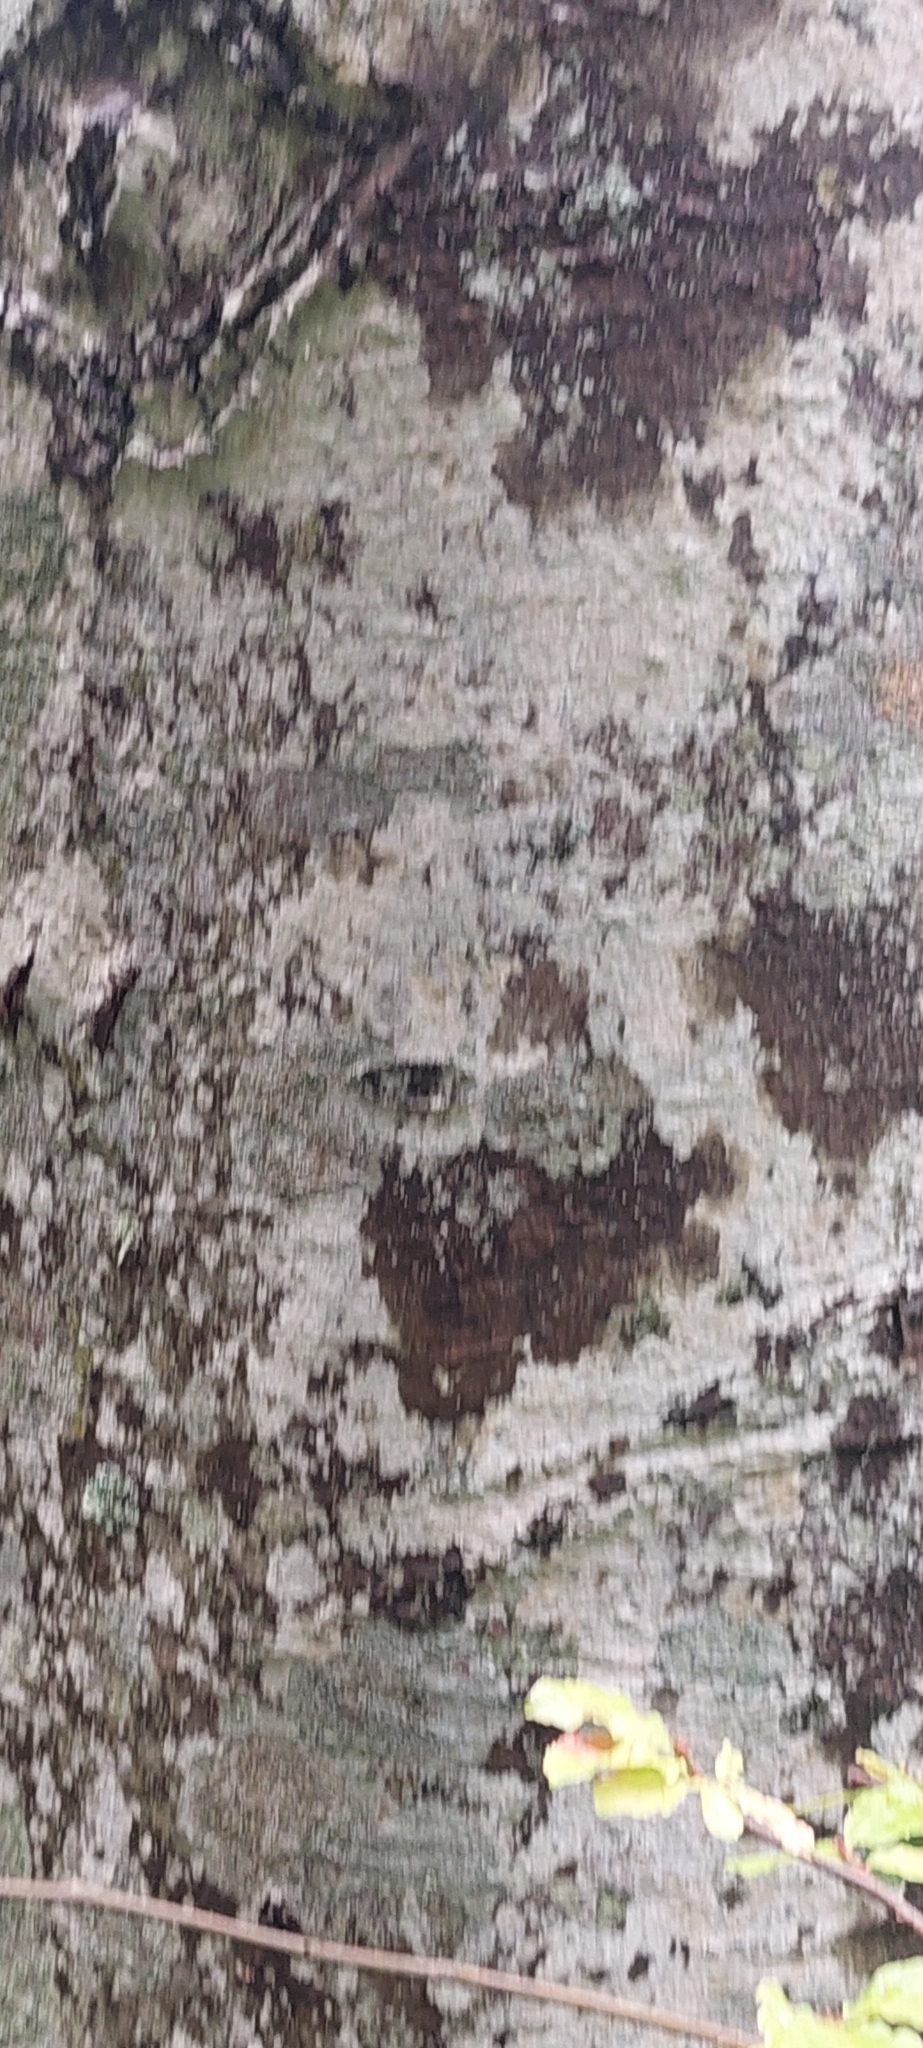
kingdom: Plantae
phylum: Tracheophyta
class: Magnoliopsida
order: Fagales
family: Fagaceae
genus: Fagus
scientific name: Fagus orientalis
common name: Oriental beech
